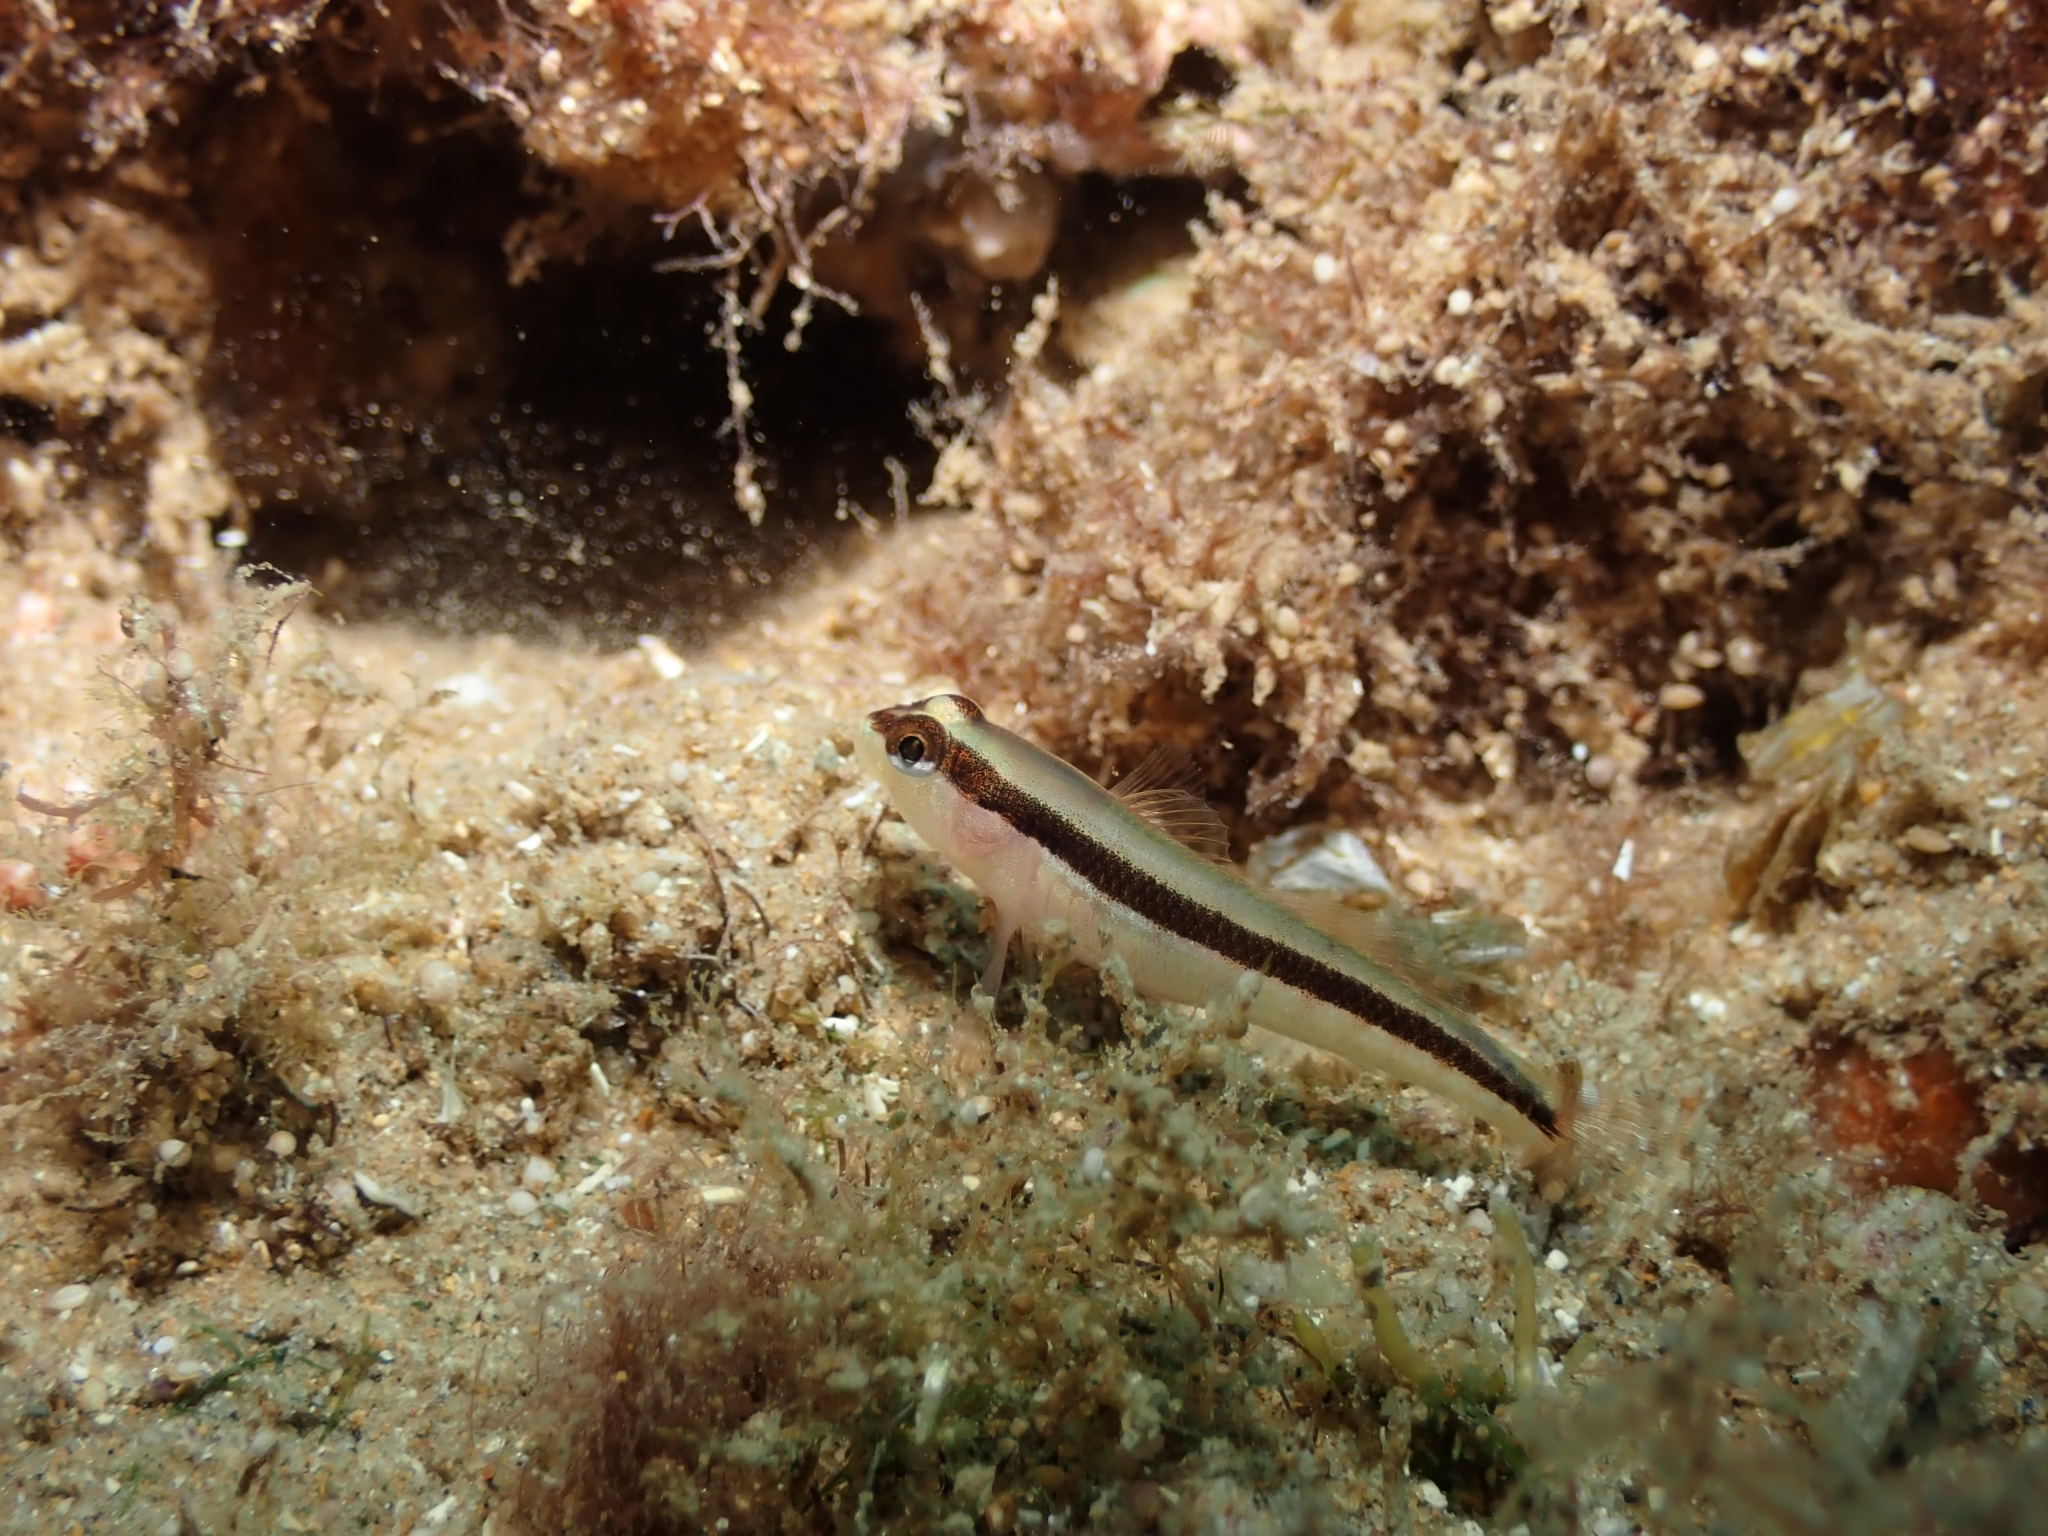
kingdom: Animalia
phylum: Chordata
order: Perciformes
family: Blenniidae
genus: Parablennius
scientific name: Parablennius rouxi
